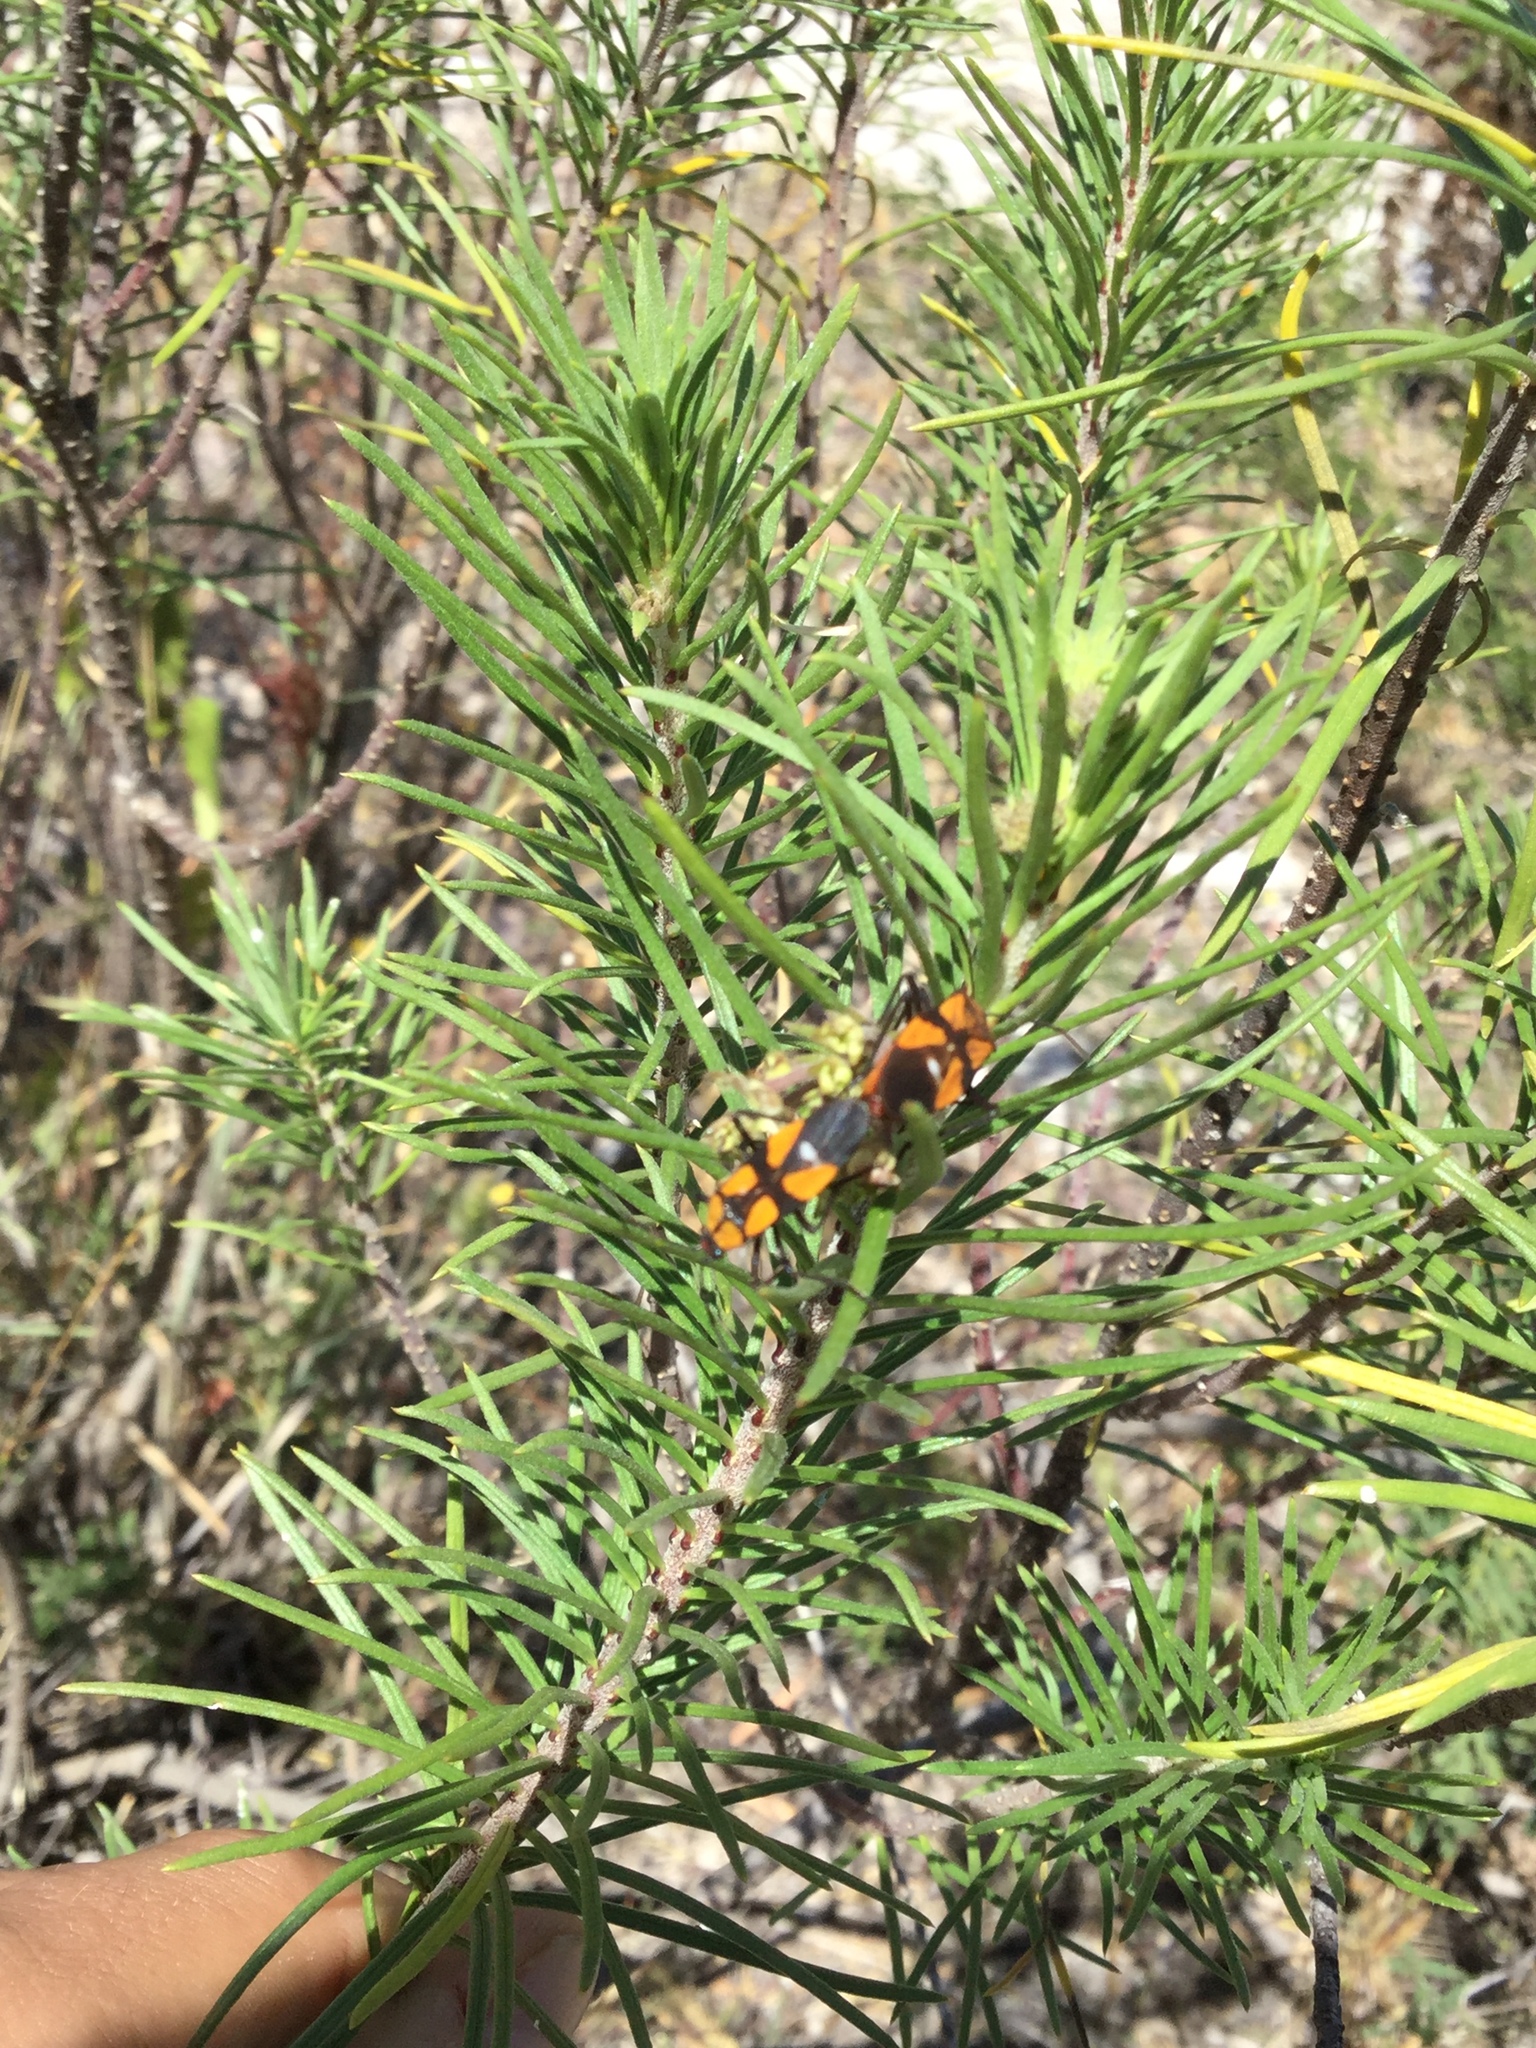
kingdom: Animalia
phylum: Arthropoda
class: Insecta
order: Hemiptera
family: Lygaeidae
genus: Oncopeltus
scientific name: Oncopeltus spectabilis
